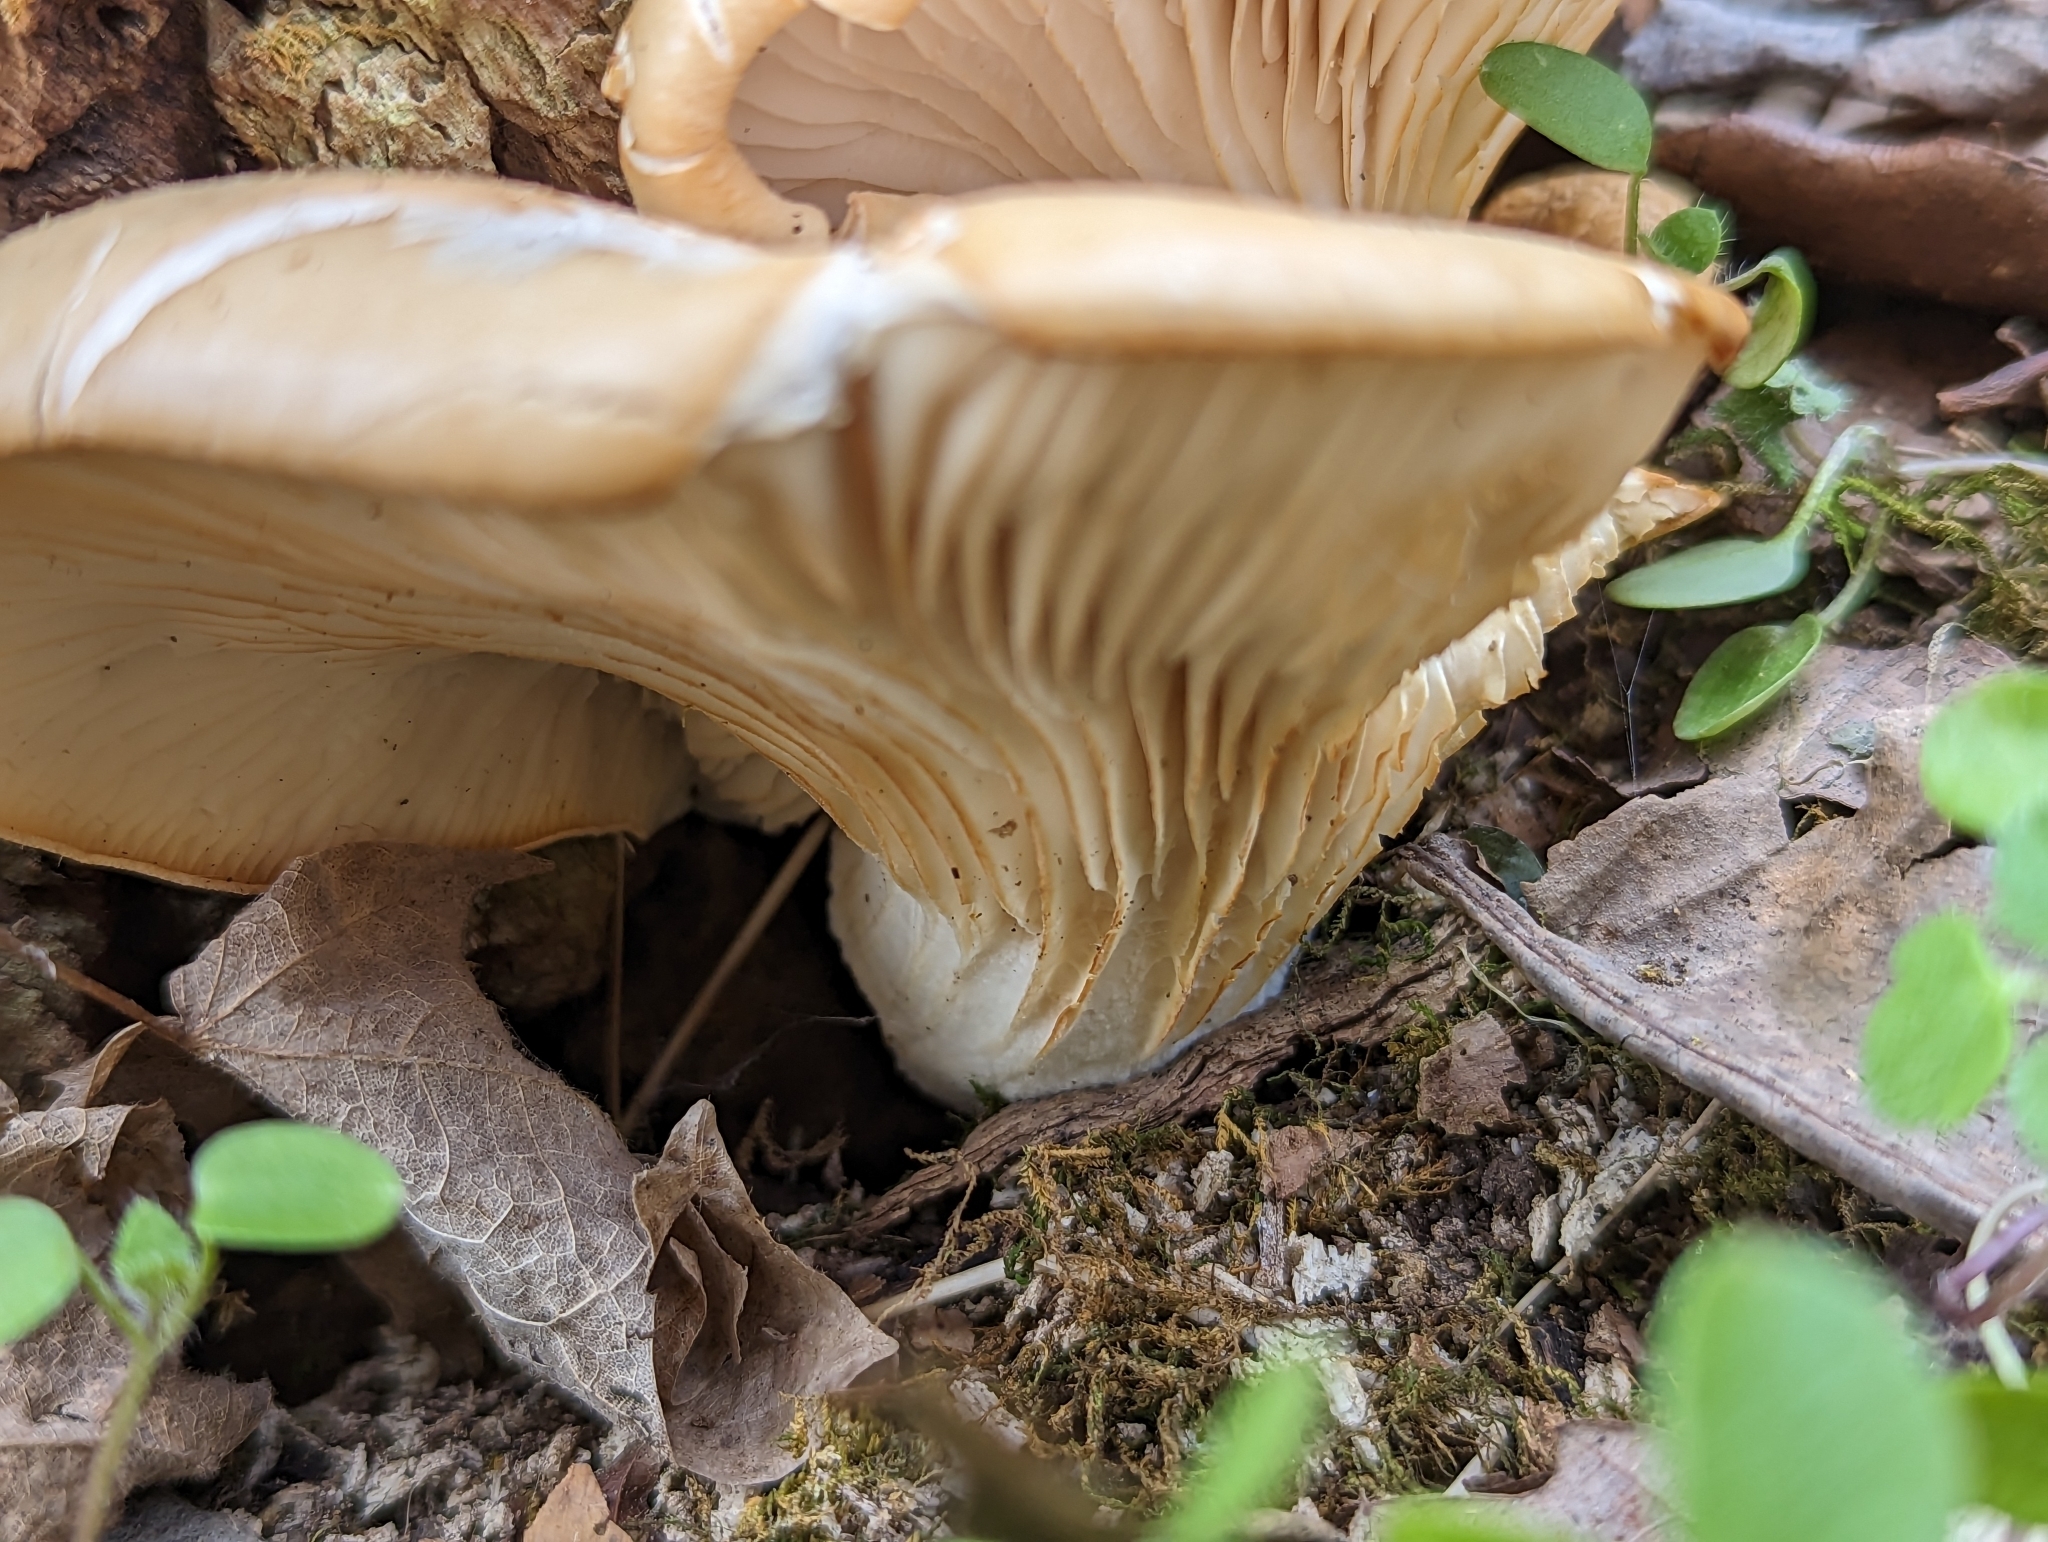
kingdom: Fungi
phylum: Basidiomycota
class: Agaricomycetes
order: Agaricales
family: Pleurotaceae
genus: Pleurotus
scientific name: Pleurotus ostreatus
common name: Oyster mushroom
